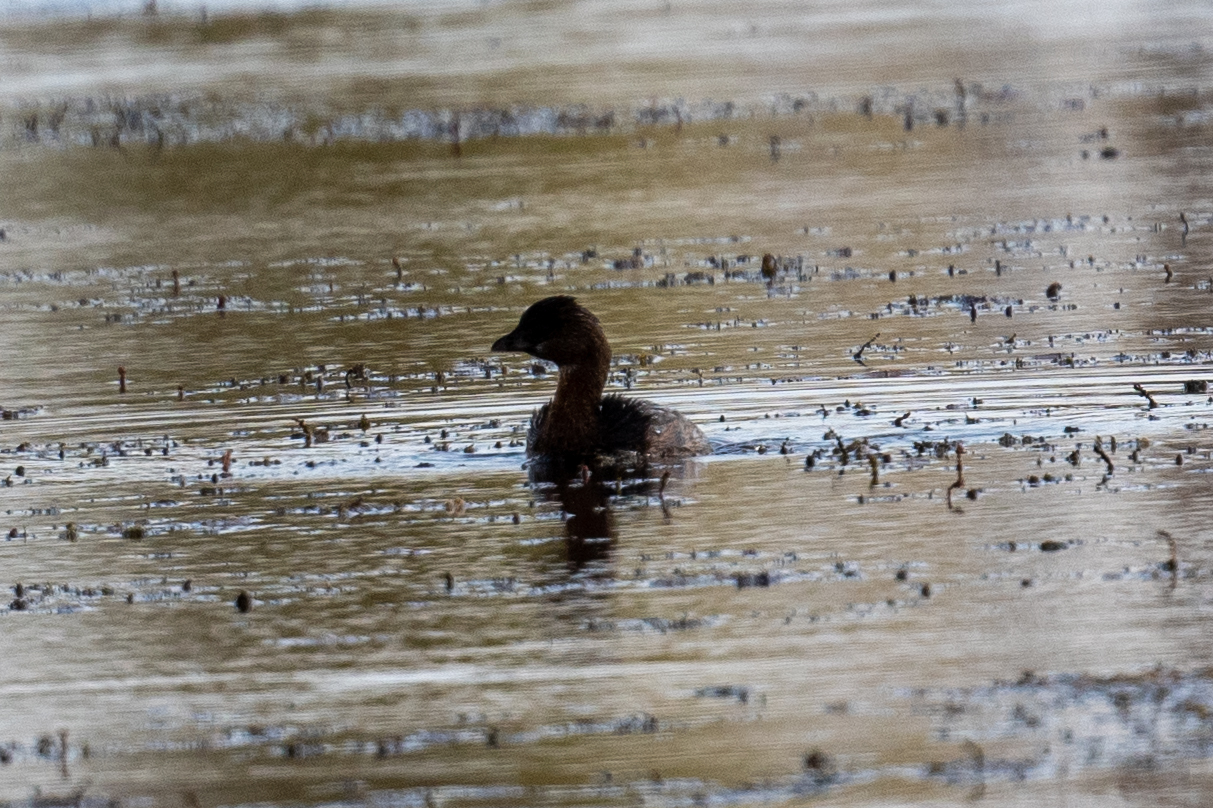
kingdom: Animalia
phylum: Chordata
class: Aves
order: Podicipediformes
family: Podicipedidae
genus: Podilymbus
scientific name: Podilymbus podiceps
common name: Pied-billed grebe
